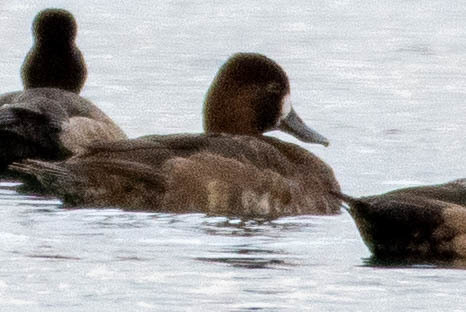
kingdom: Animalia
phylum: Chordata
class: Aves
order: Anseriformes
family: Anatidae
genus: Aythya
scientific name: Aythya affinis
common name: Lesser scaup
